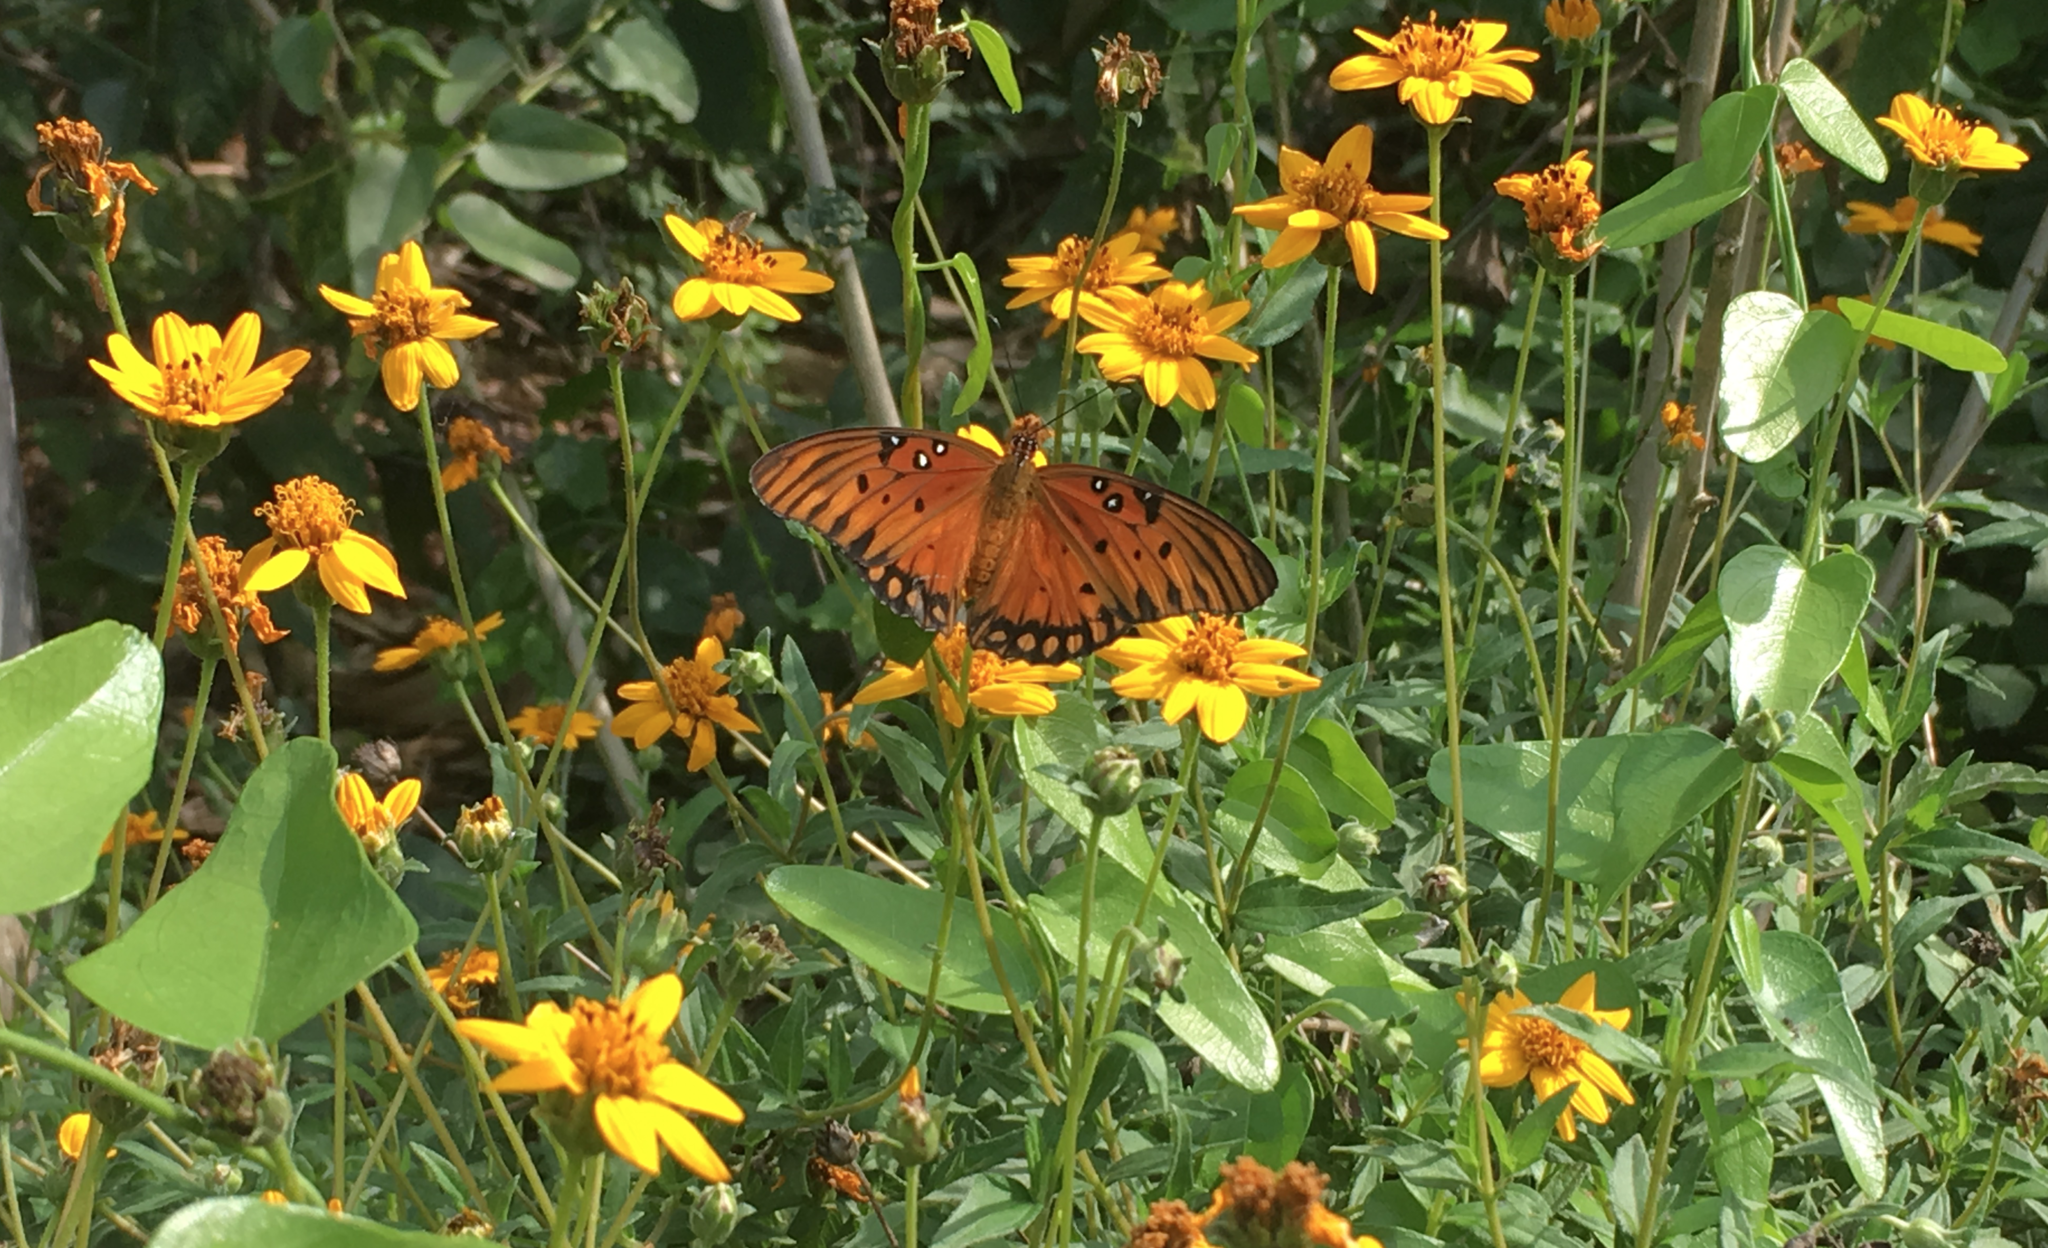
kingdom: Animalia
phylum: Arthropoda
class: Insecta
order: Lepidoptera
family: Nymphalidae
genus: Dione
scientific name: Dione vanillae
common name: Gulf fritillary
